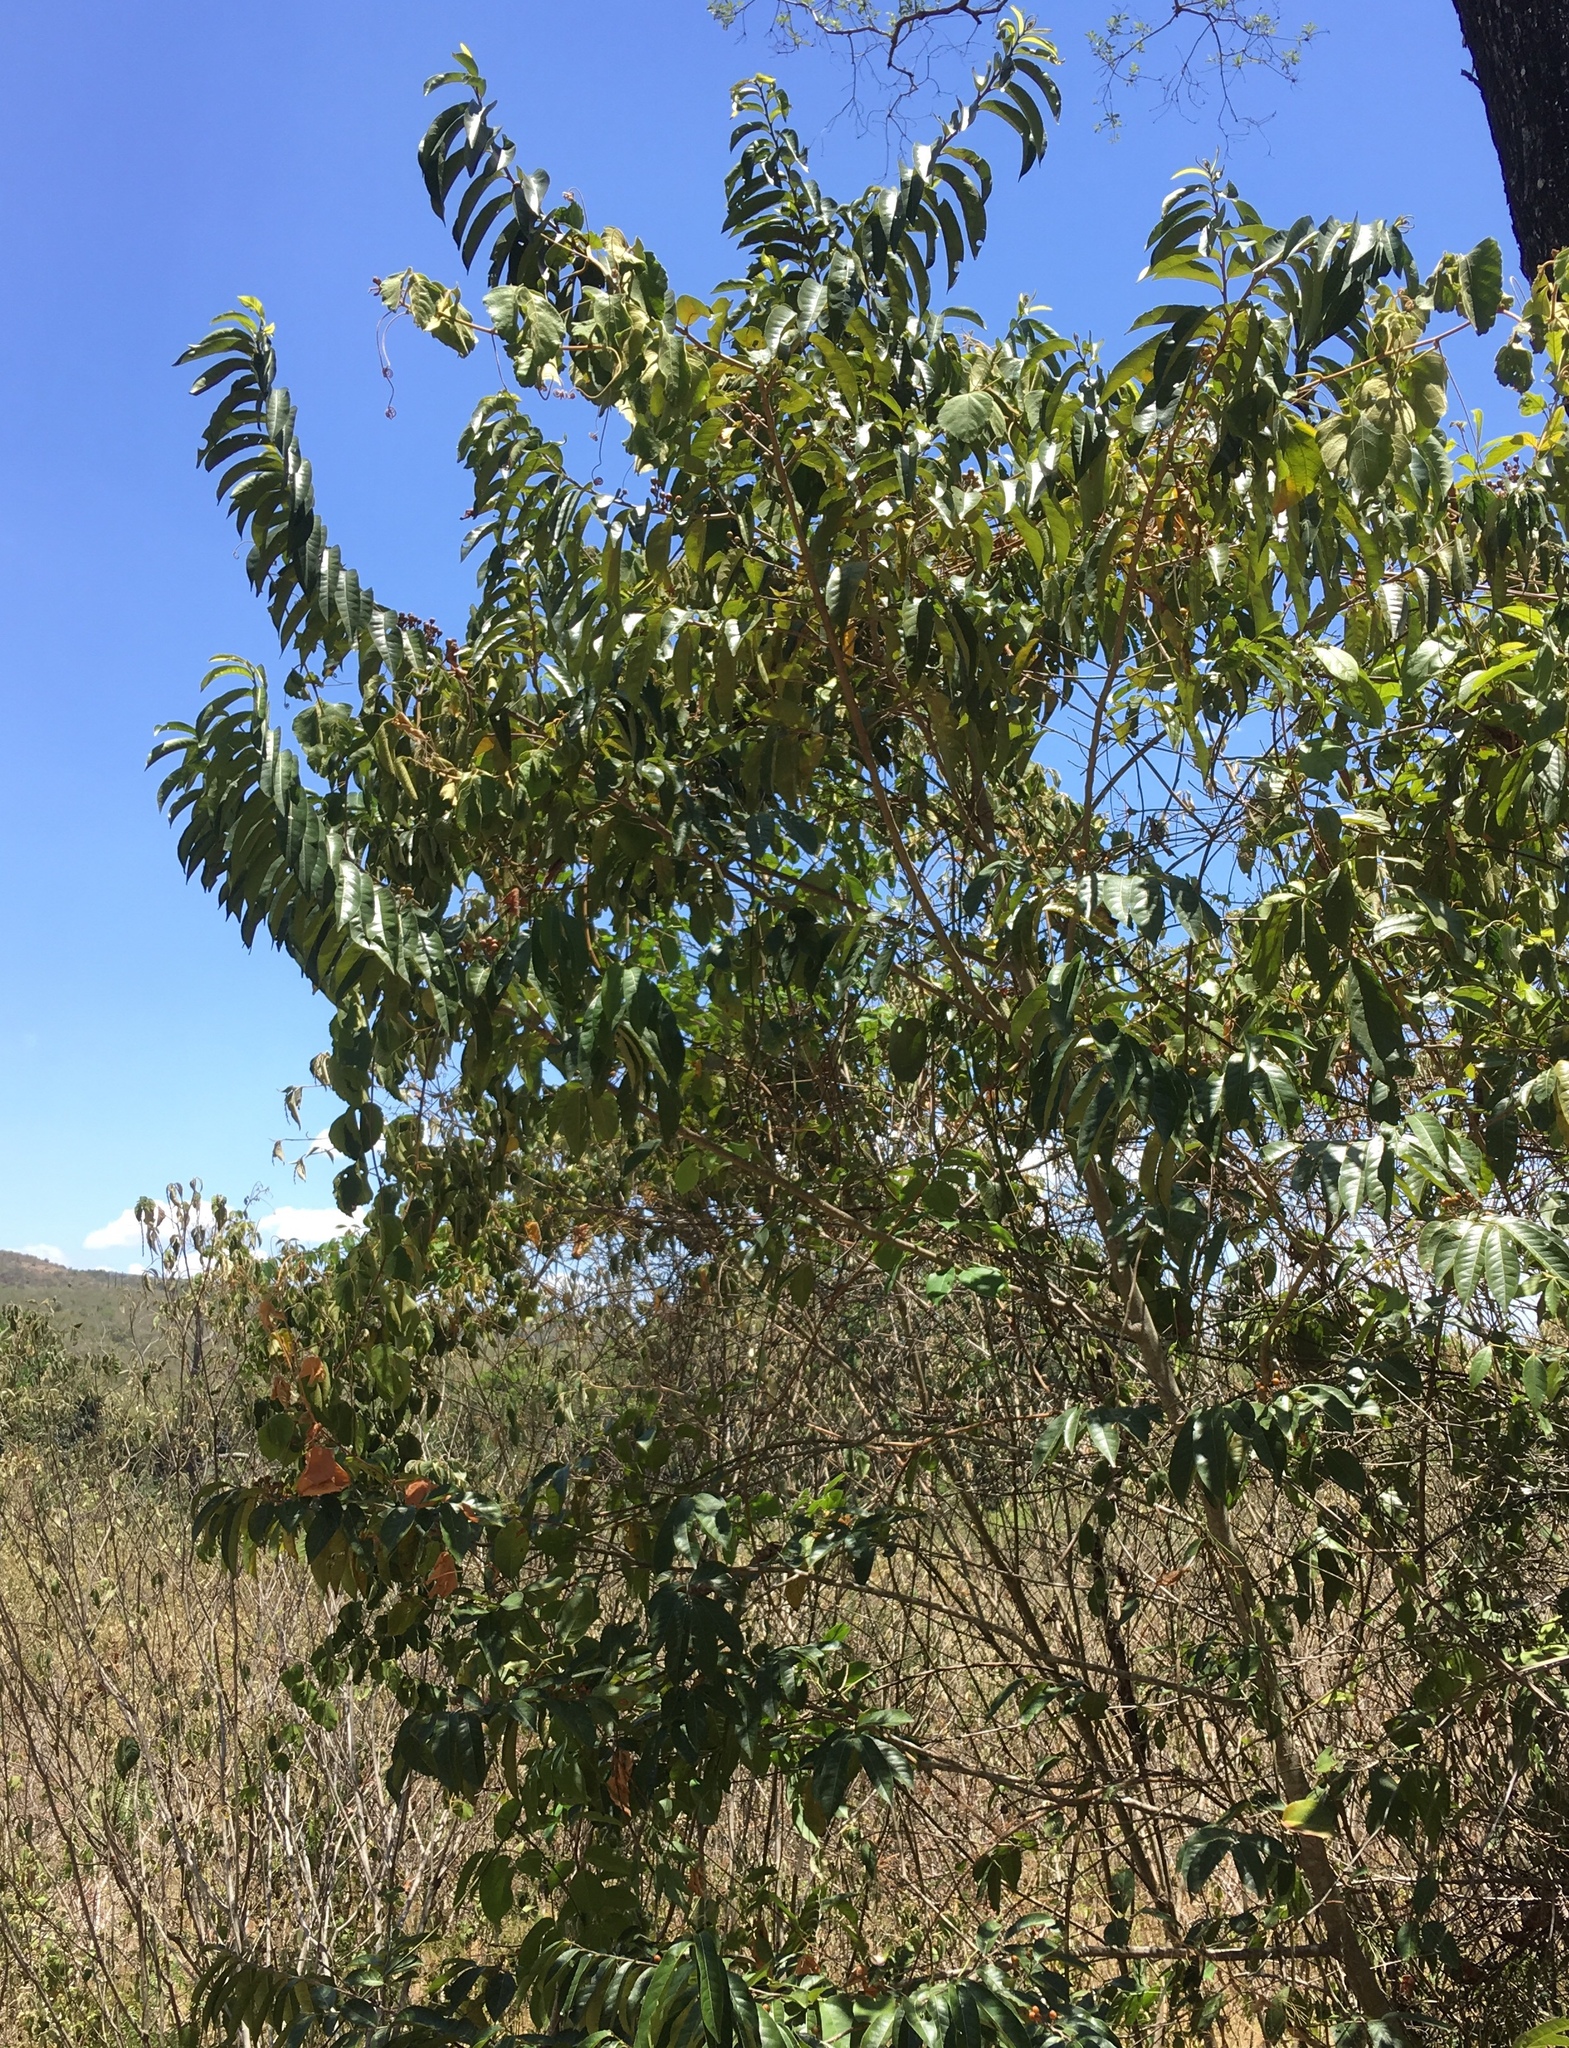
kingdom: Plantae
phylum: Tracheophyta
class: Magnoliopsida
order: Malpighiales
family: Salicaceae
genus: Casearia
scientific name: Casearia corymbosa
